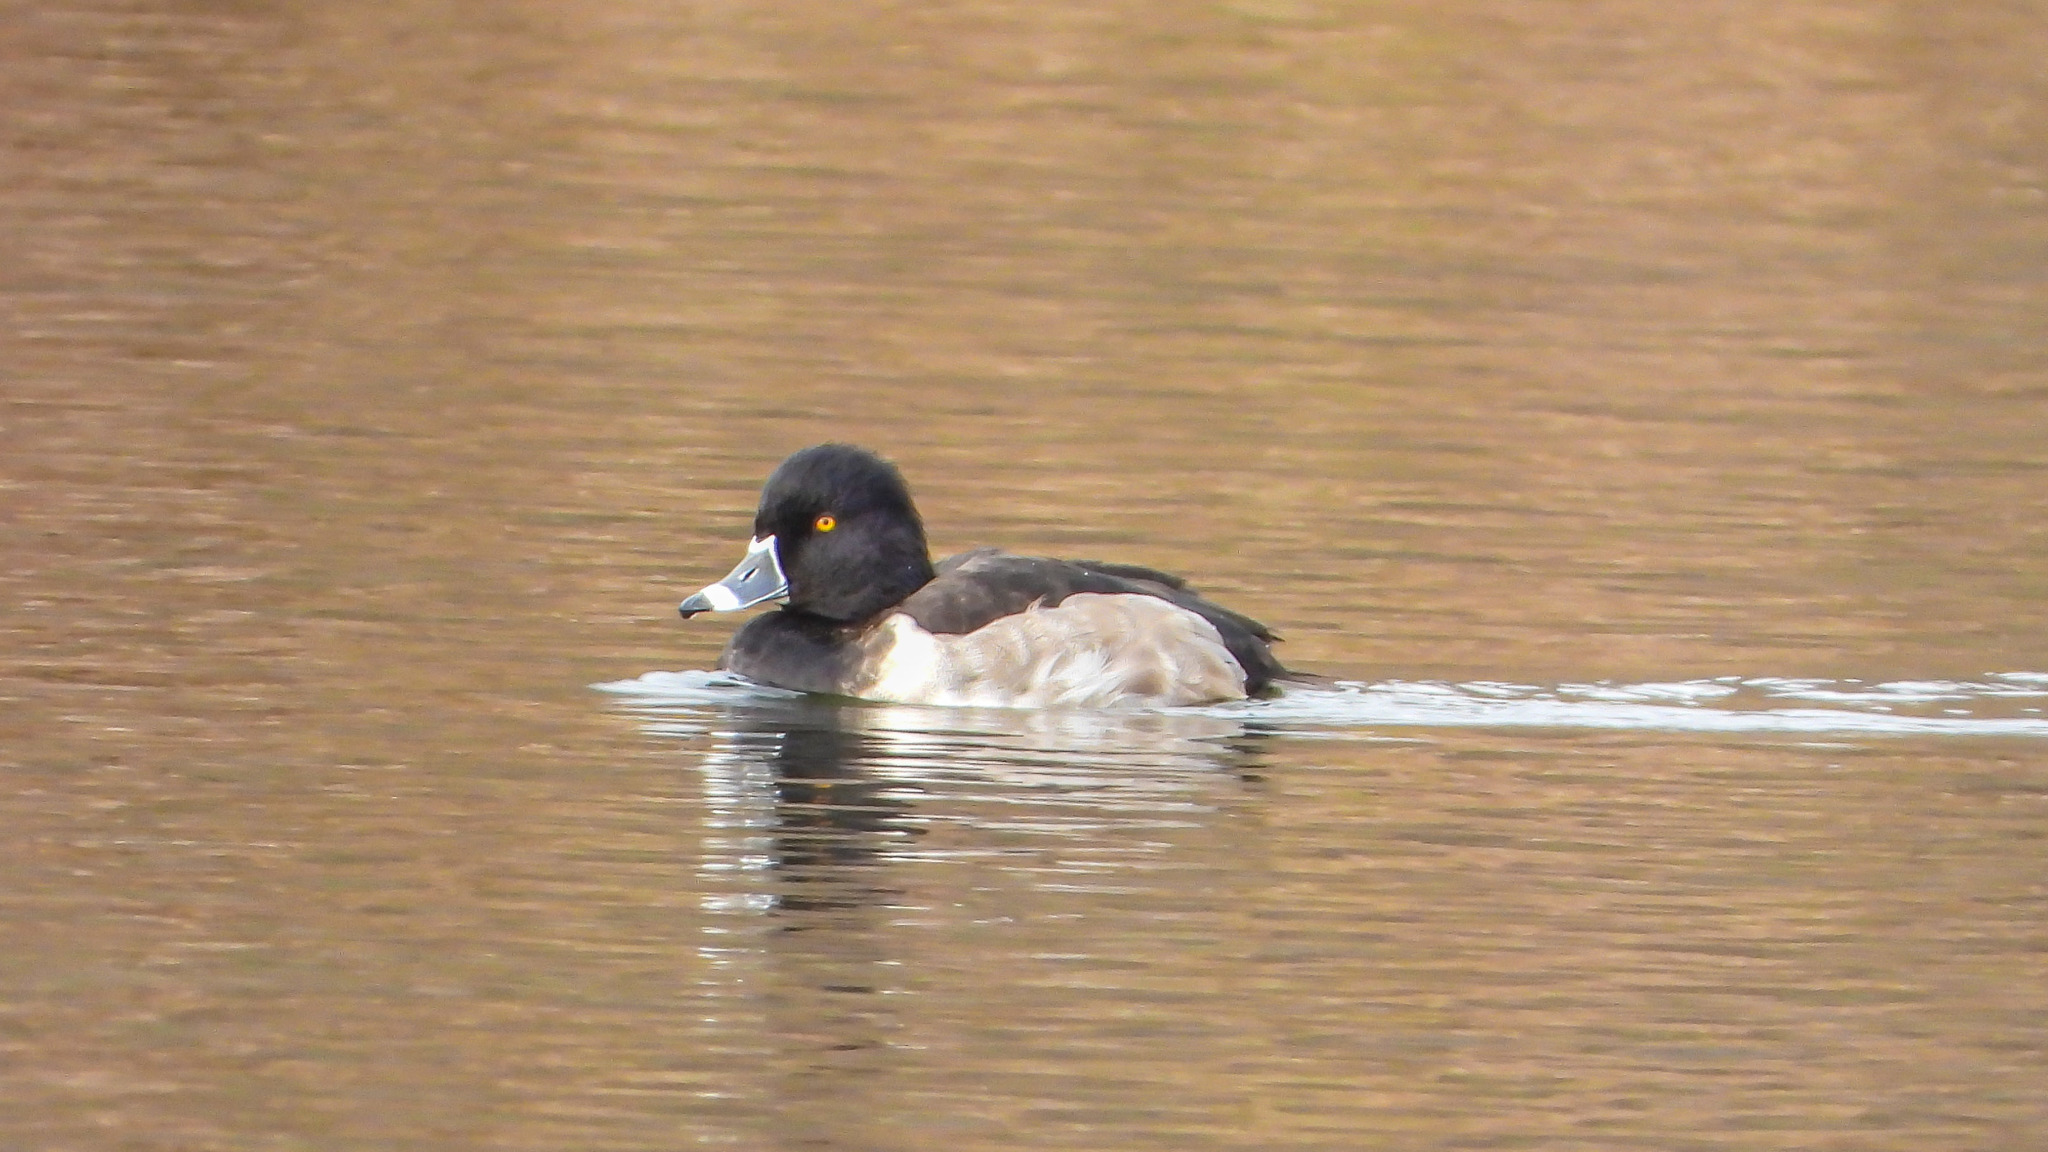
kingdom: Animalia
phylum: Chordata
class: Aves
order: Anseriformes
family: Anatidae
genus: Aythya
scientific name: Aythya collaris
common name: Ring-necked duck
